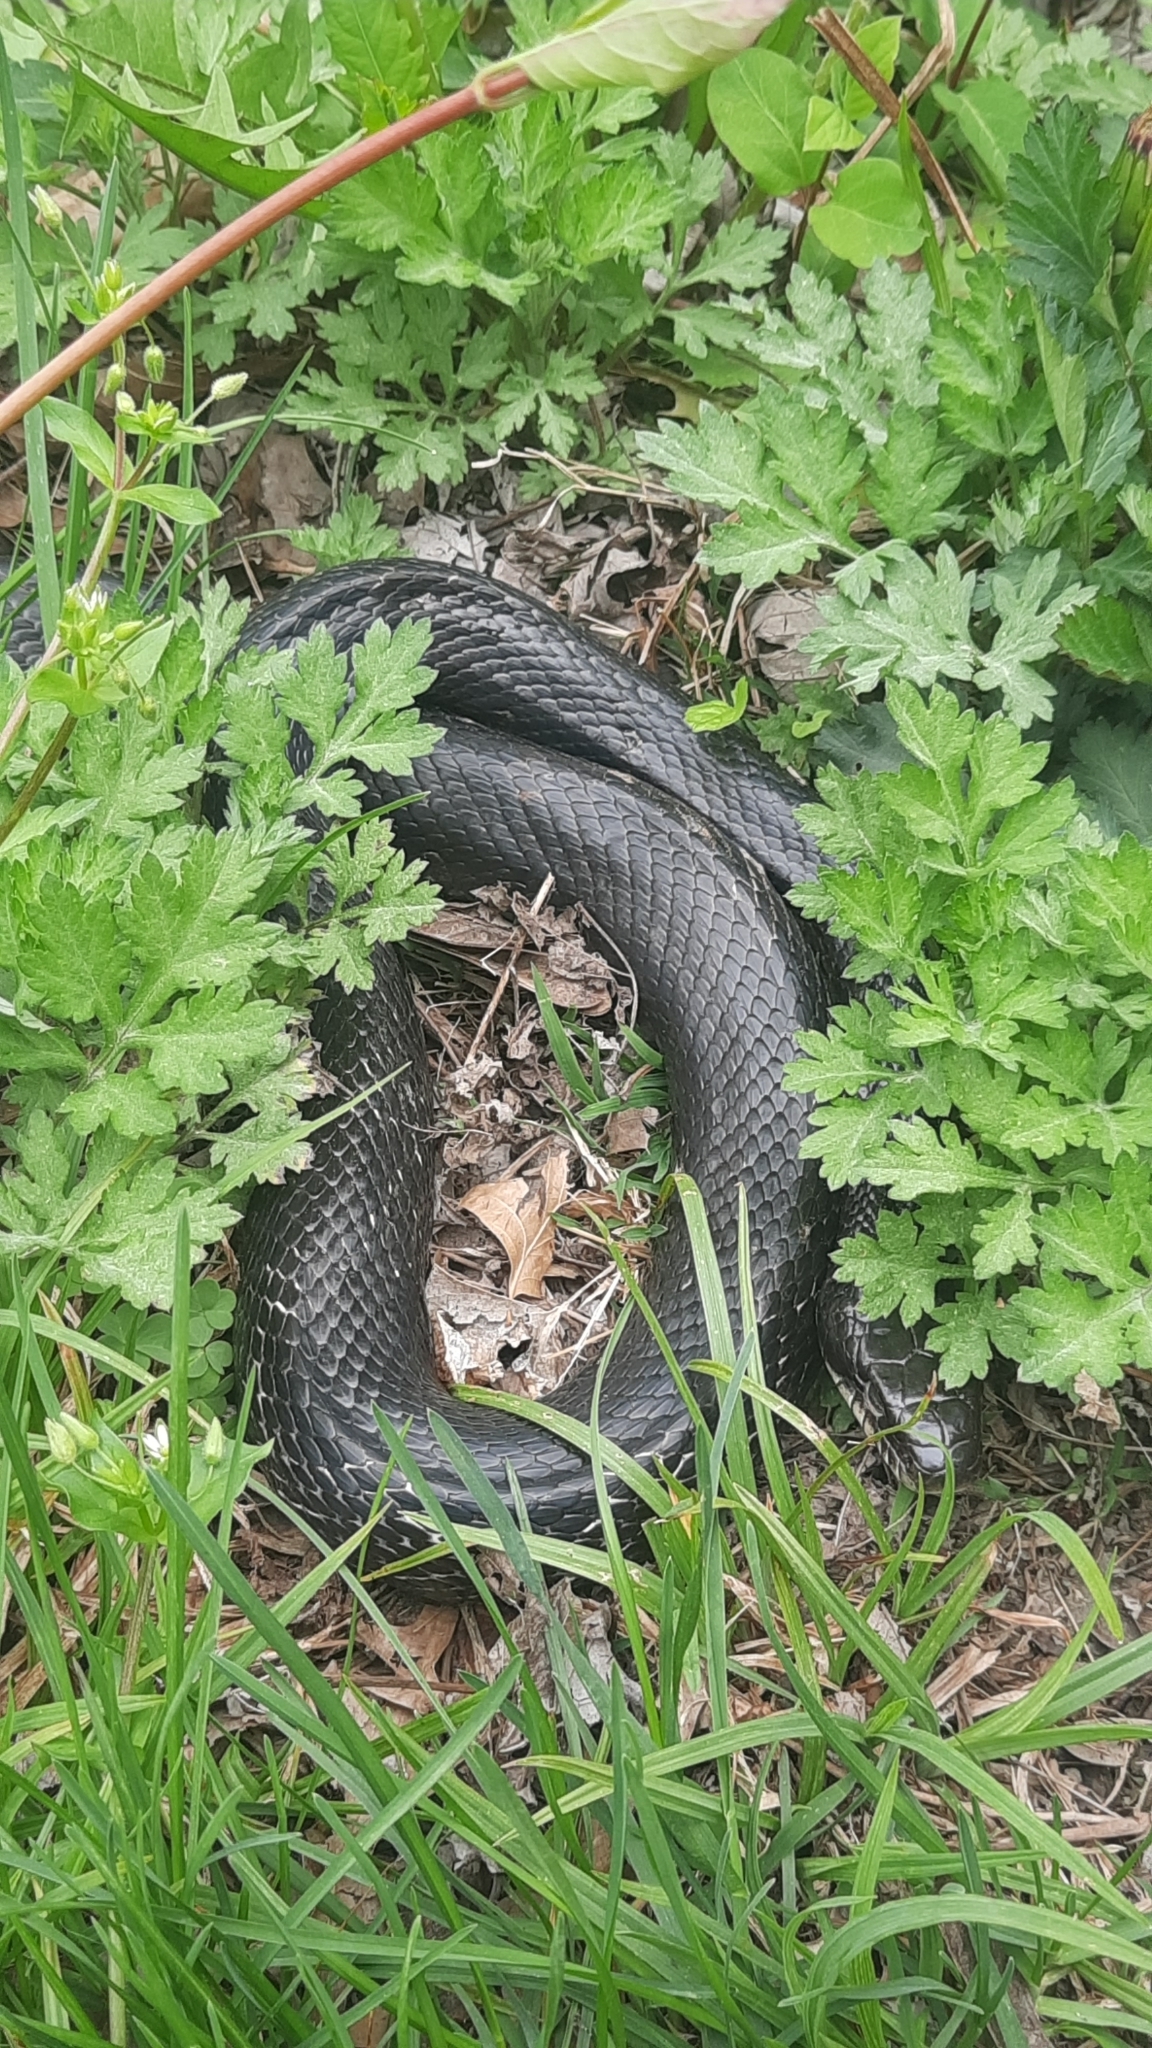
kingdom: Animalia
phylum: Chordata
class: Squamata
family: Colubridae
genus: Pantherophis
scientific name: Pantherophis alleghaniensis
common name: Eastern rat snake
